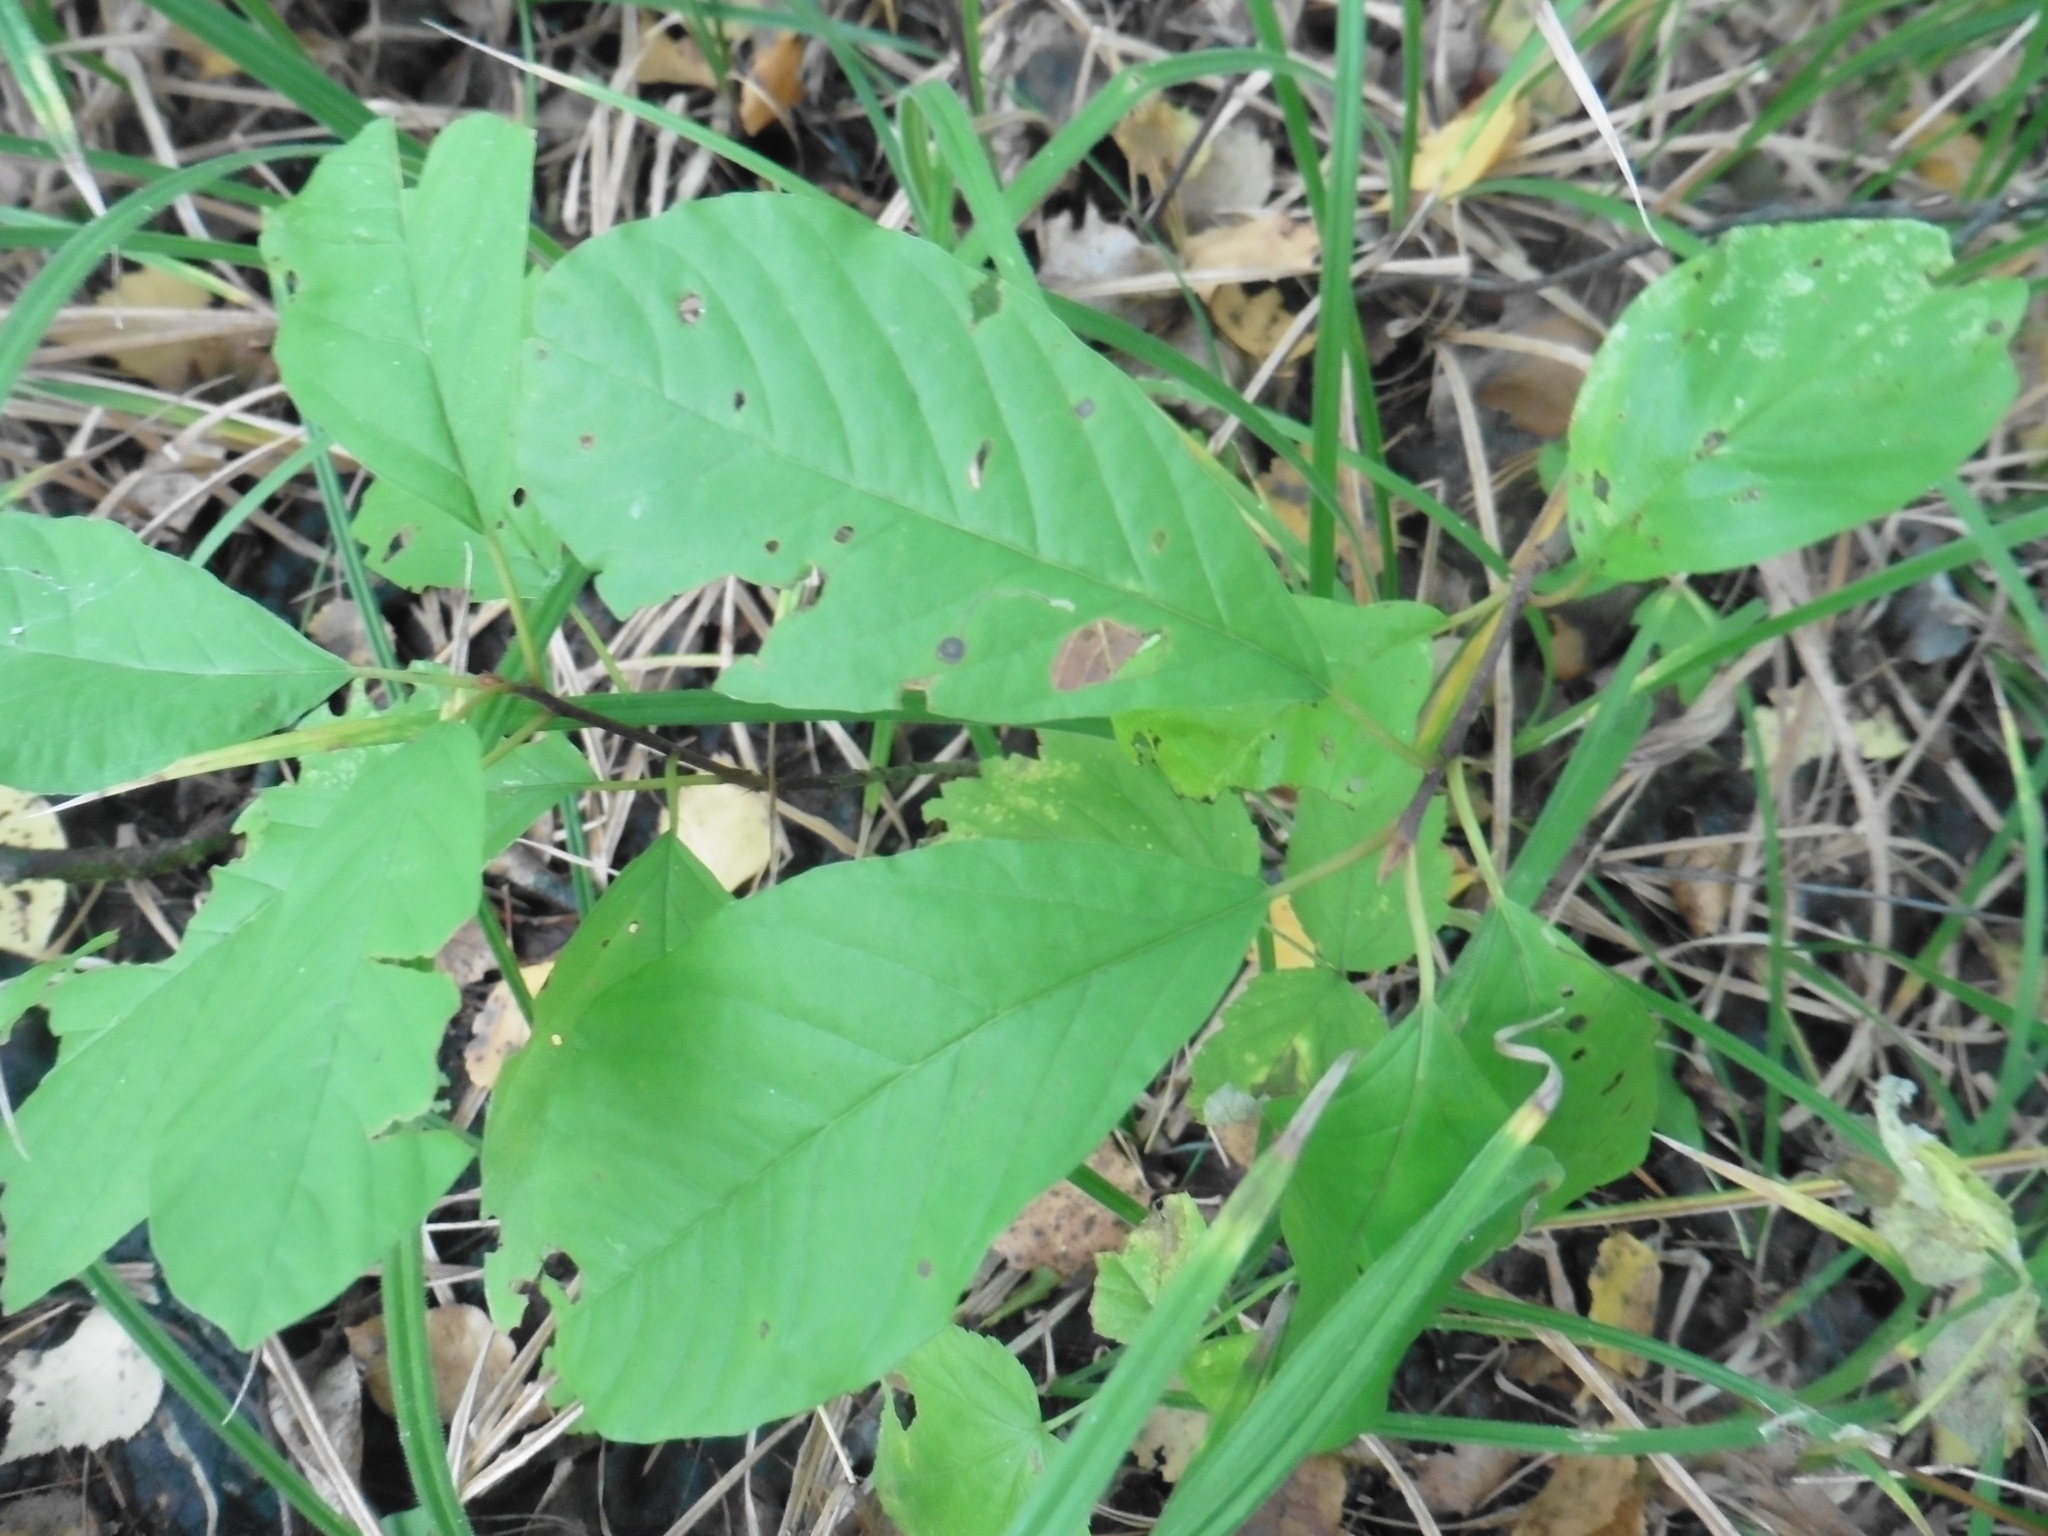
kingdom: Plantae
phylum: Tracheophyta
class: Magnoliopsida
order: Rosales
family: Rhamnaceae
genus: Frangula
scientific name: Frangula alnus
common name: Alder buckthorn
